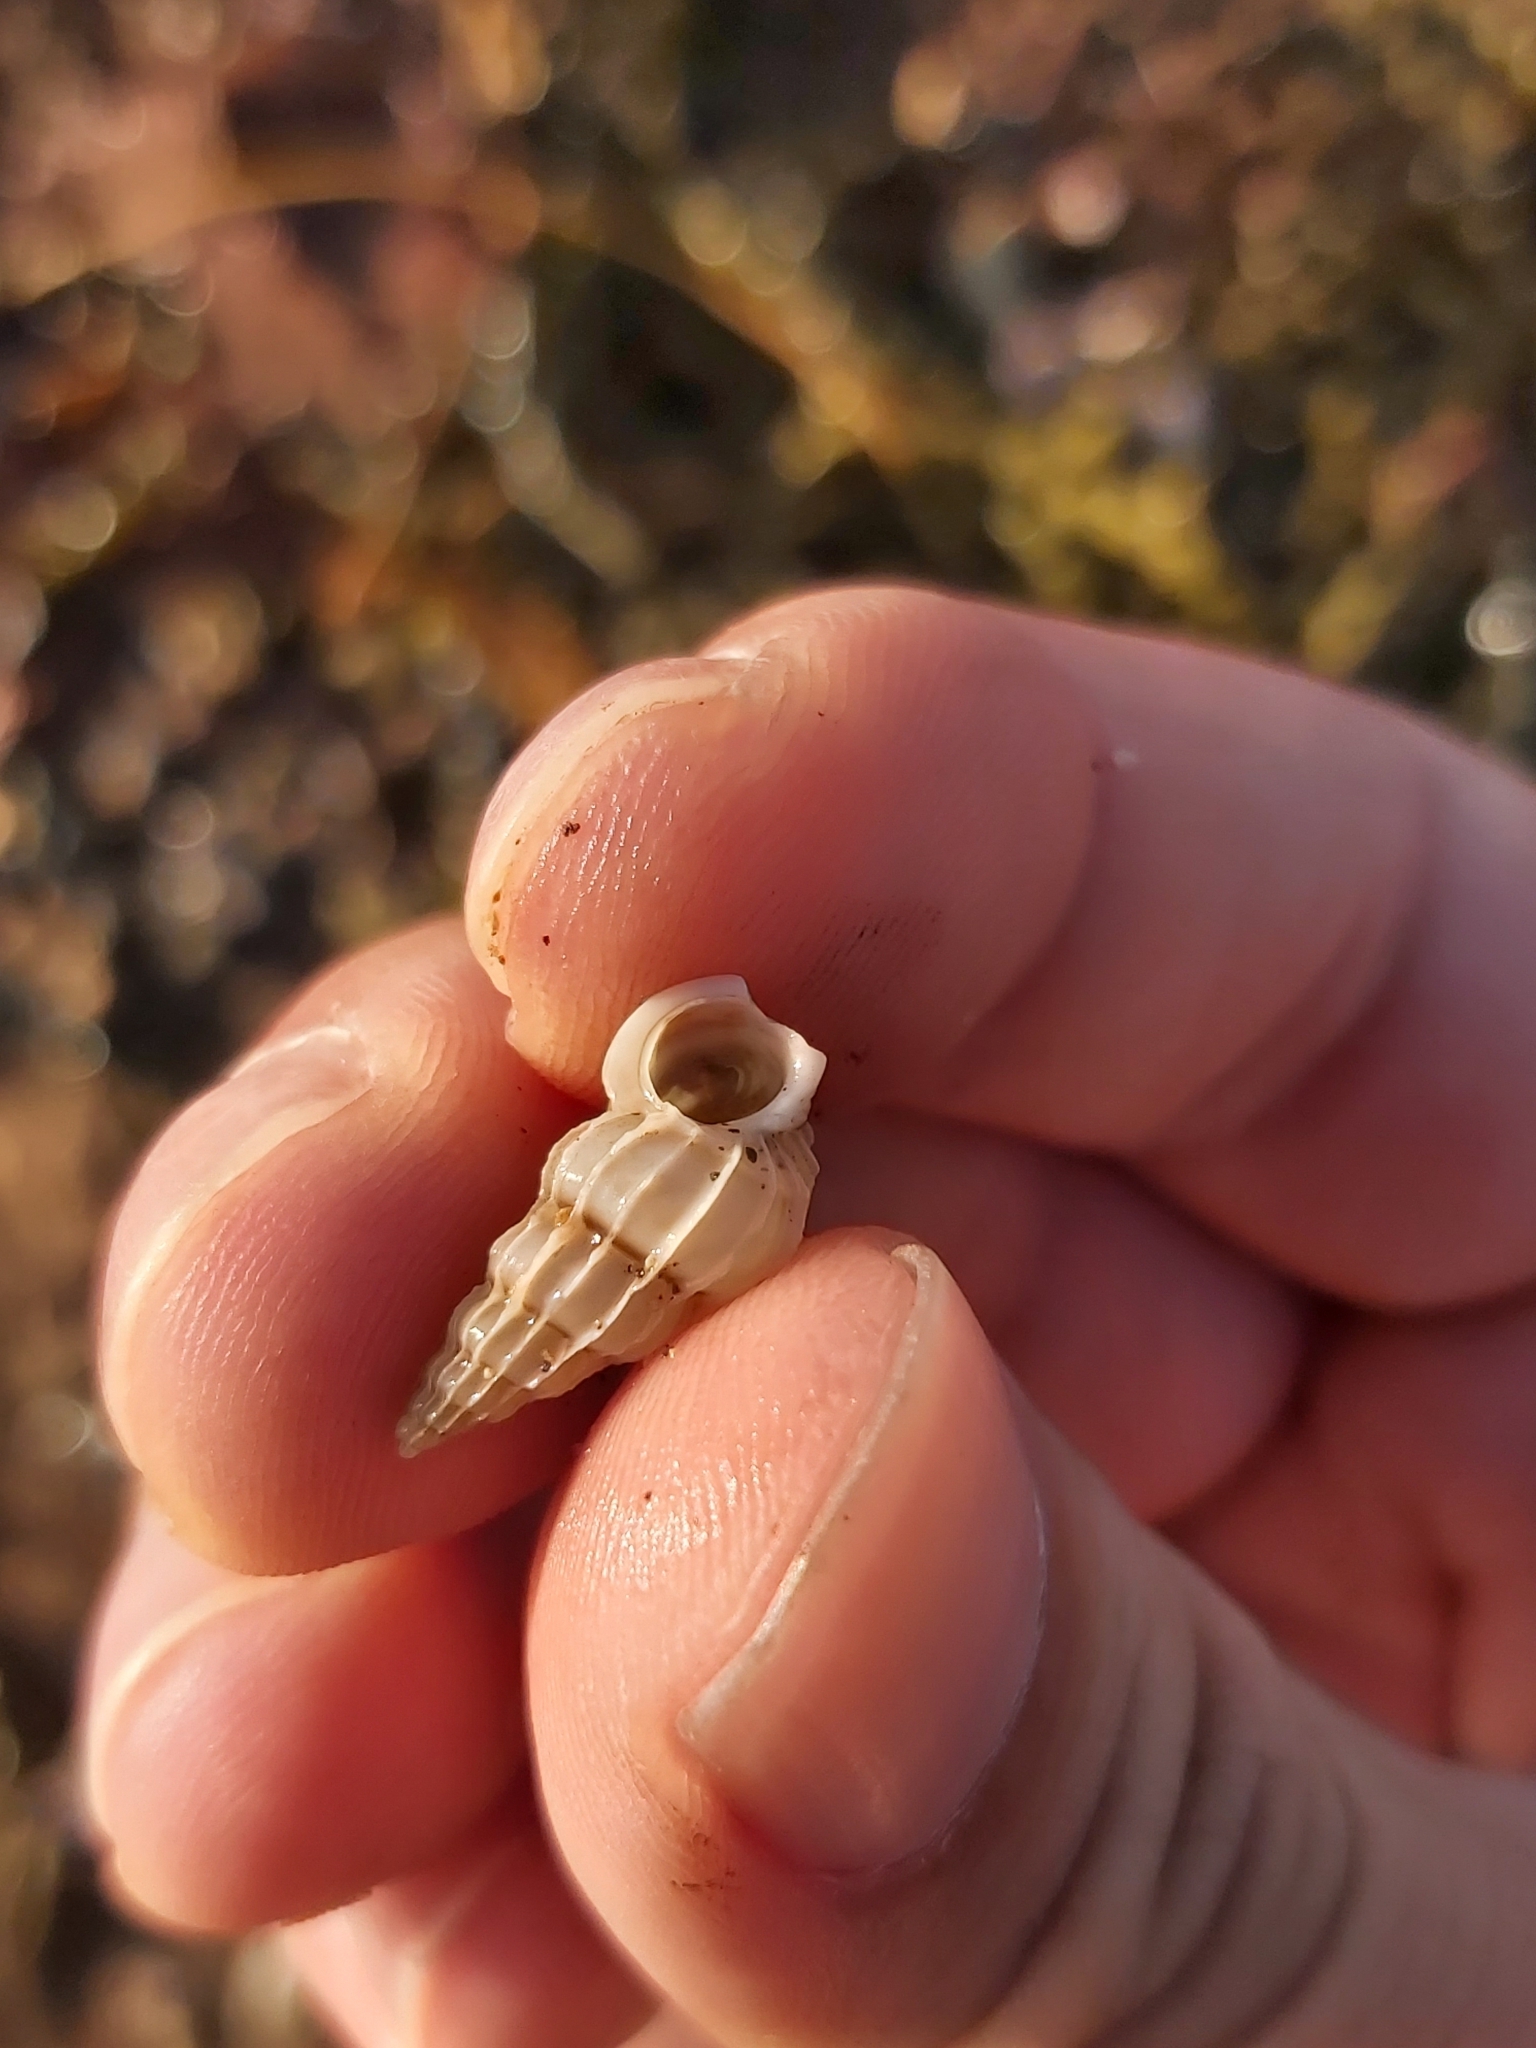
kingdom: Animalia
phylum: Mollusca
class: Gastropoda
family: Epitoniidae
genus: Gyroscala
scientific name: Gyroscala commutata
